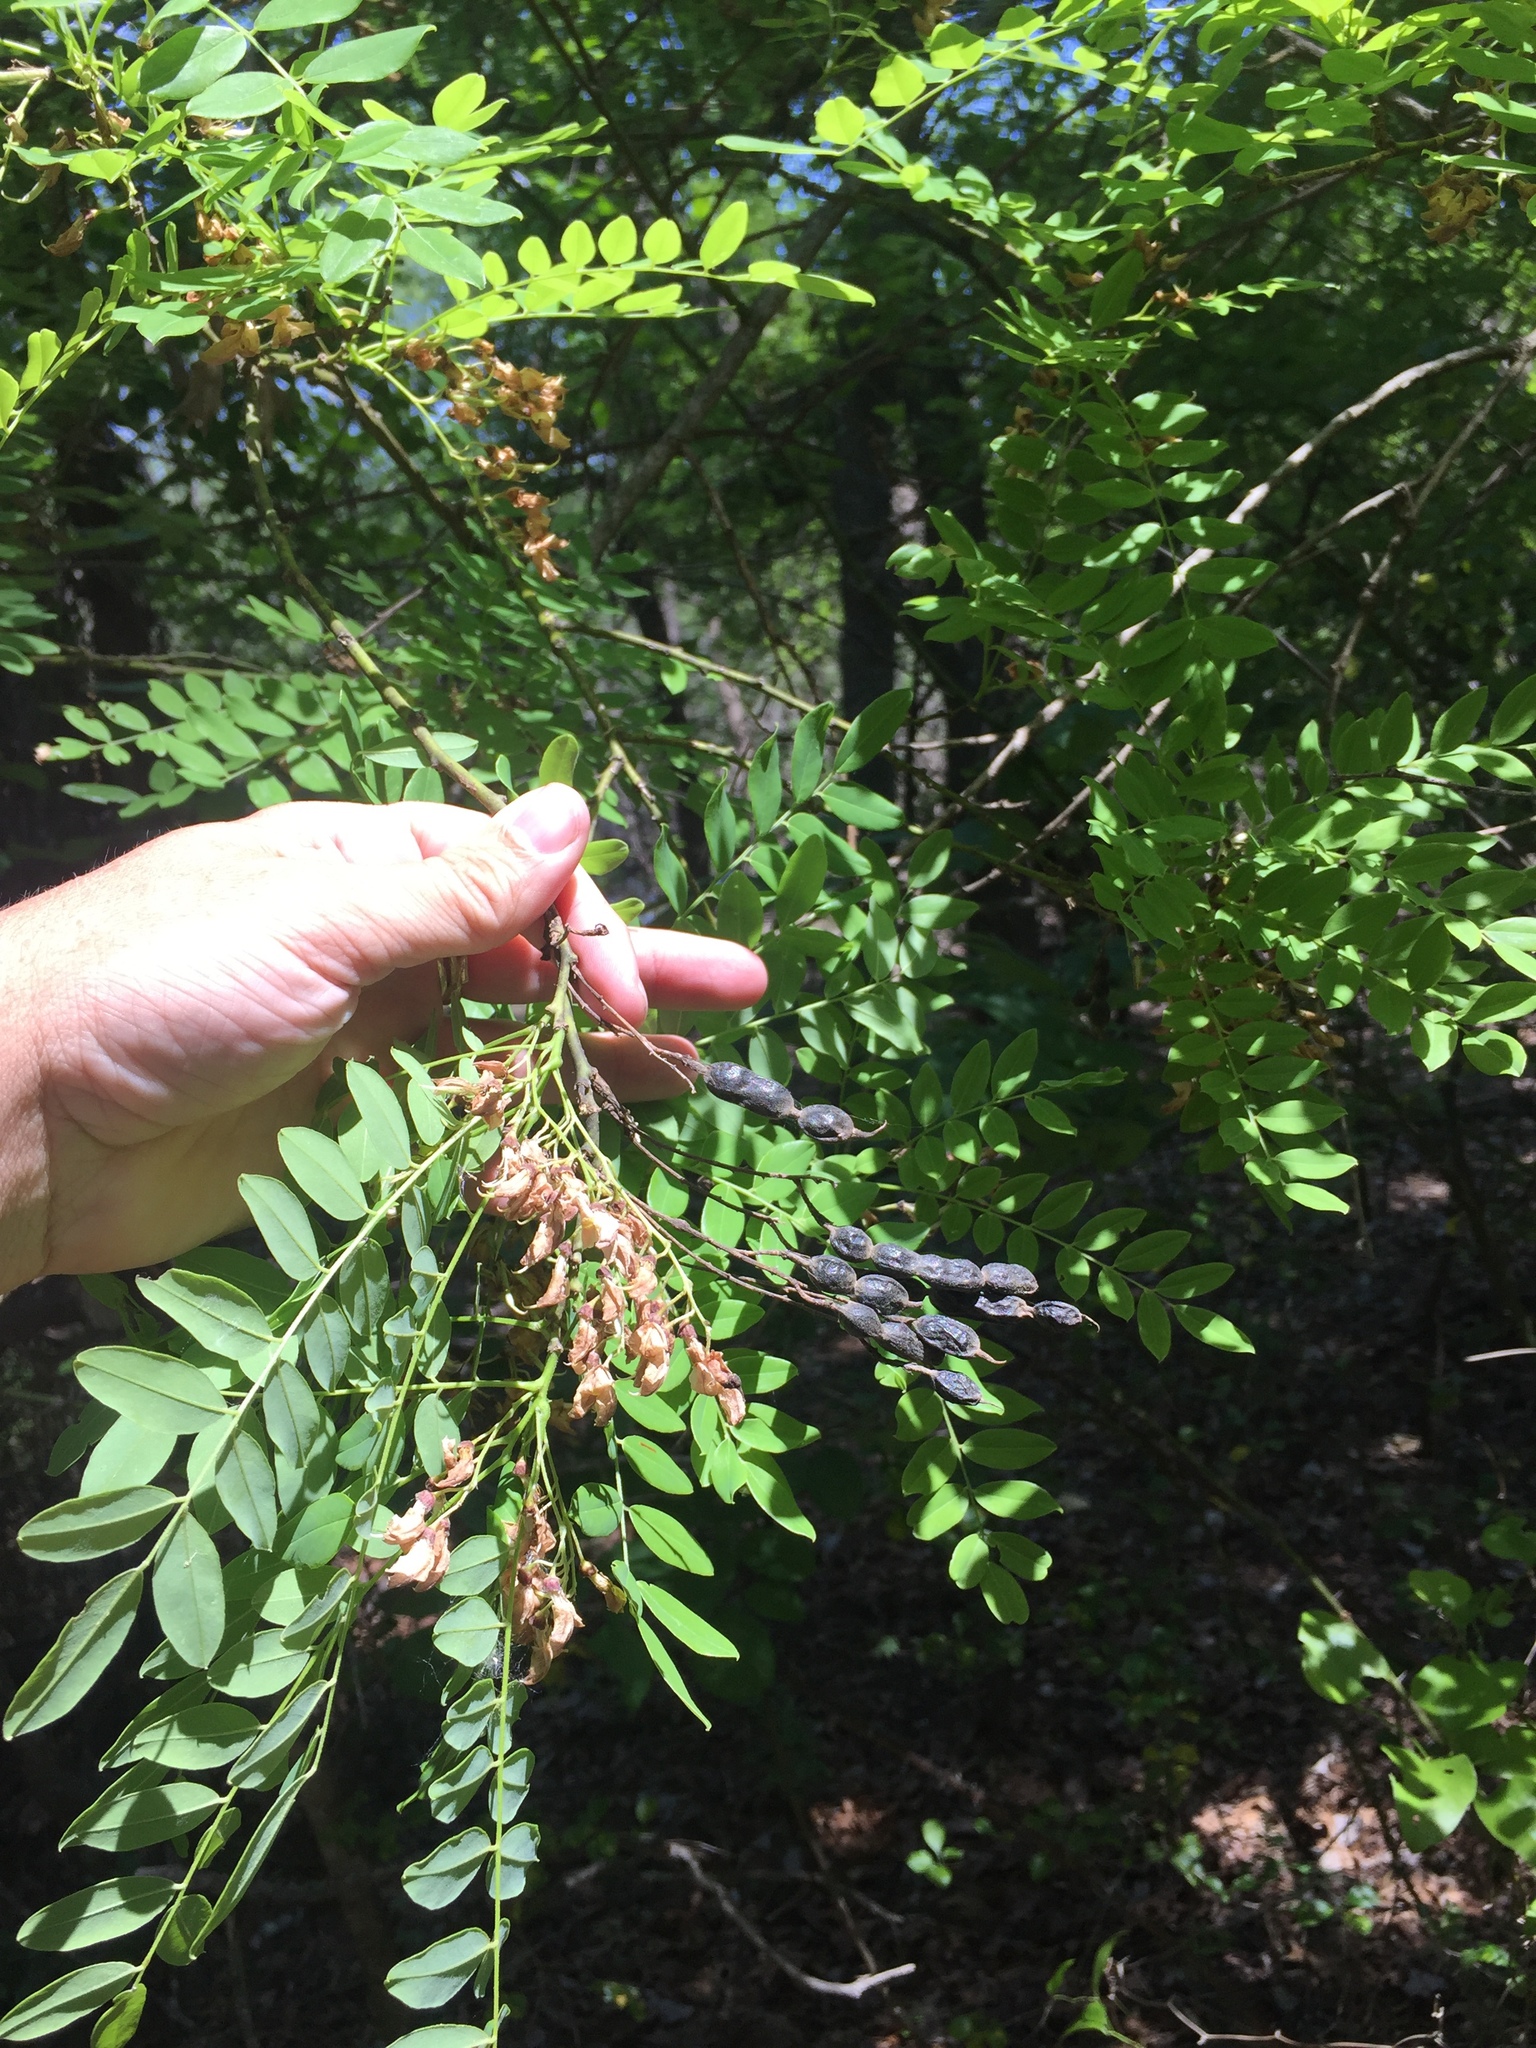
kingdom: Plantae
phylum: Tracheophyta
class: Magnoliopsida
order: Fabales
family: Fabaceae
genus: Styphnolobium
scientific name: Styphnolobium affine
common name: Texas sophora
